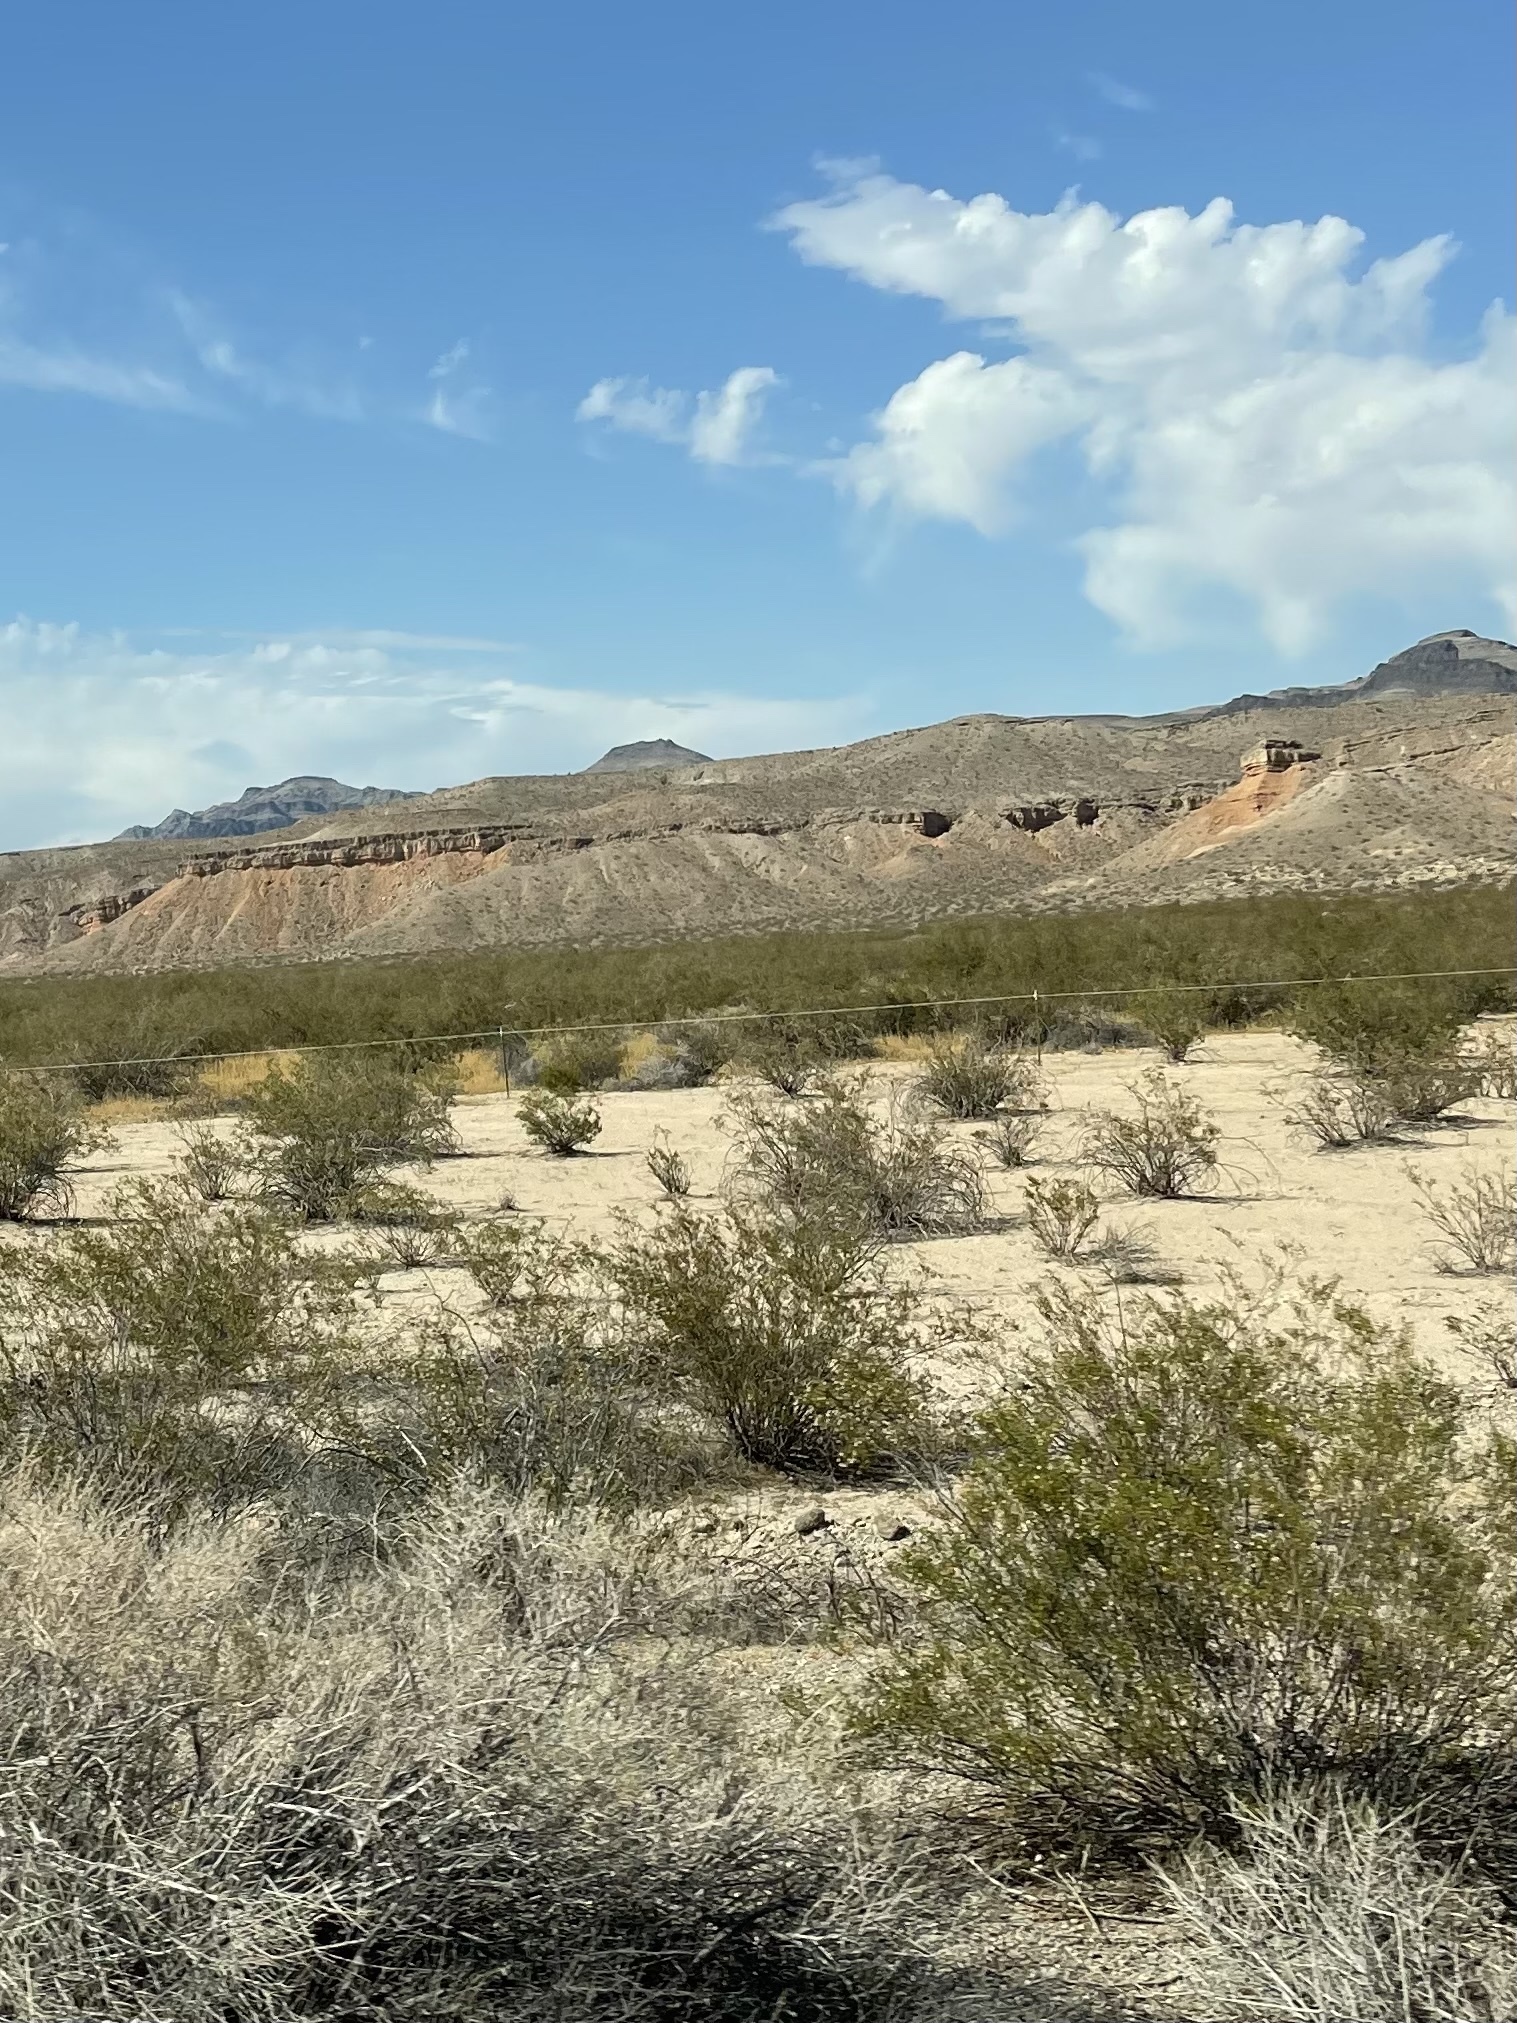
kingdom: Plantae
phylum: Tracheophyta
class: Magnoliopsida
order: Zygophyllales
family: Zygophyllaceae
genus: Larrea
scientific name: Larrea tridentata
